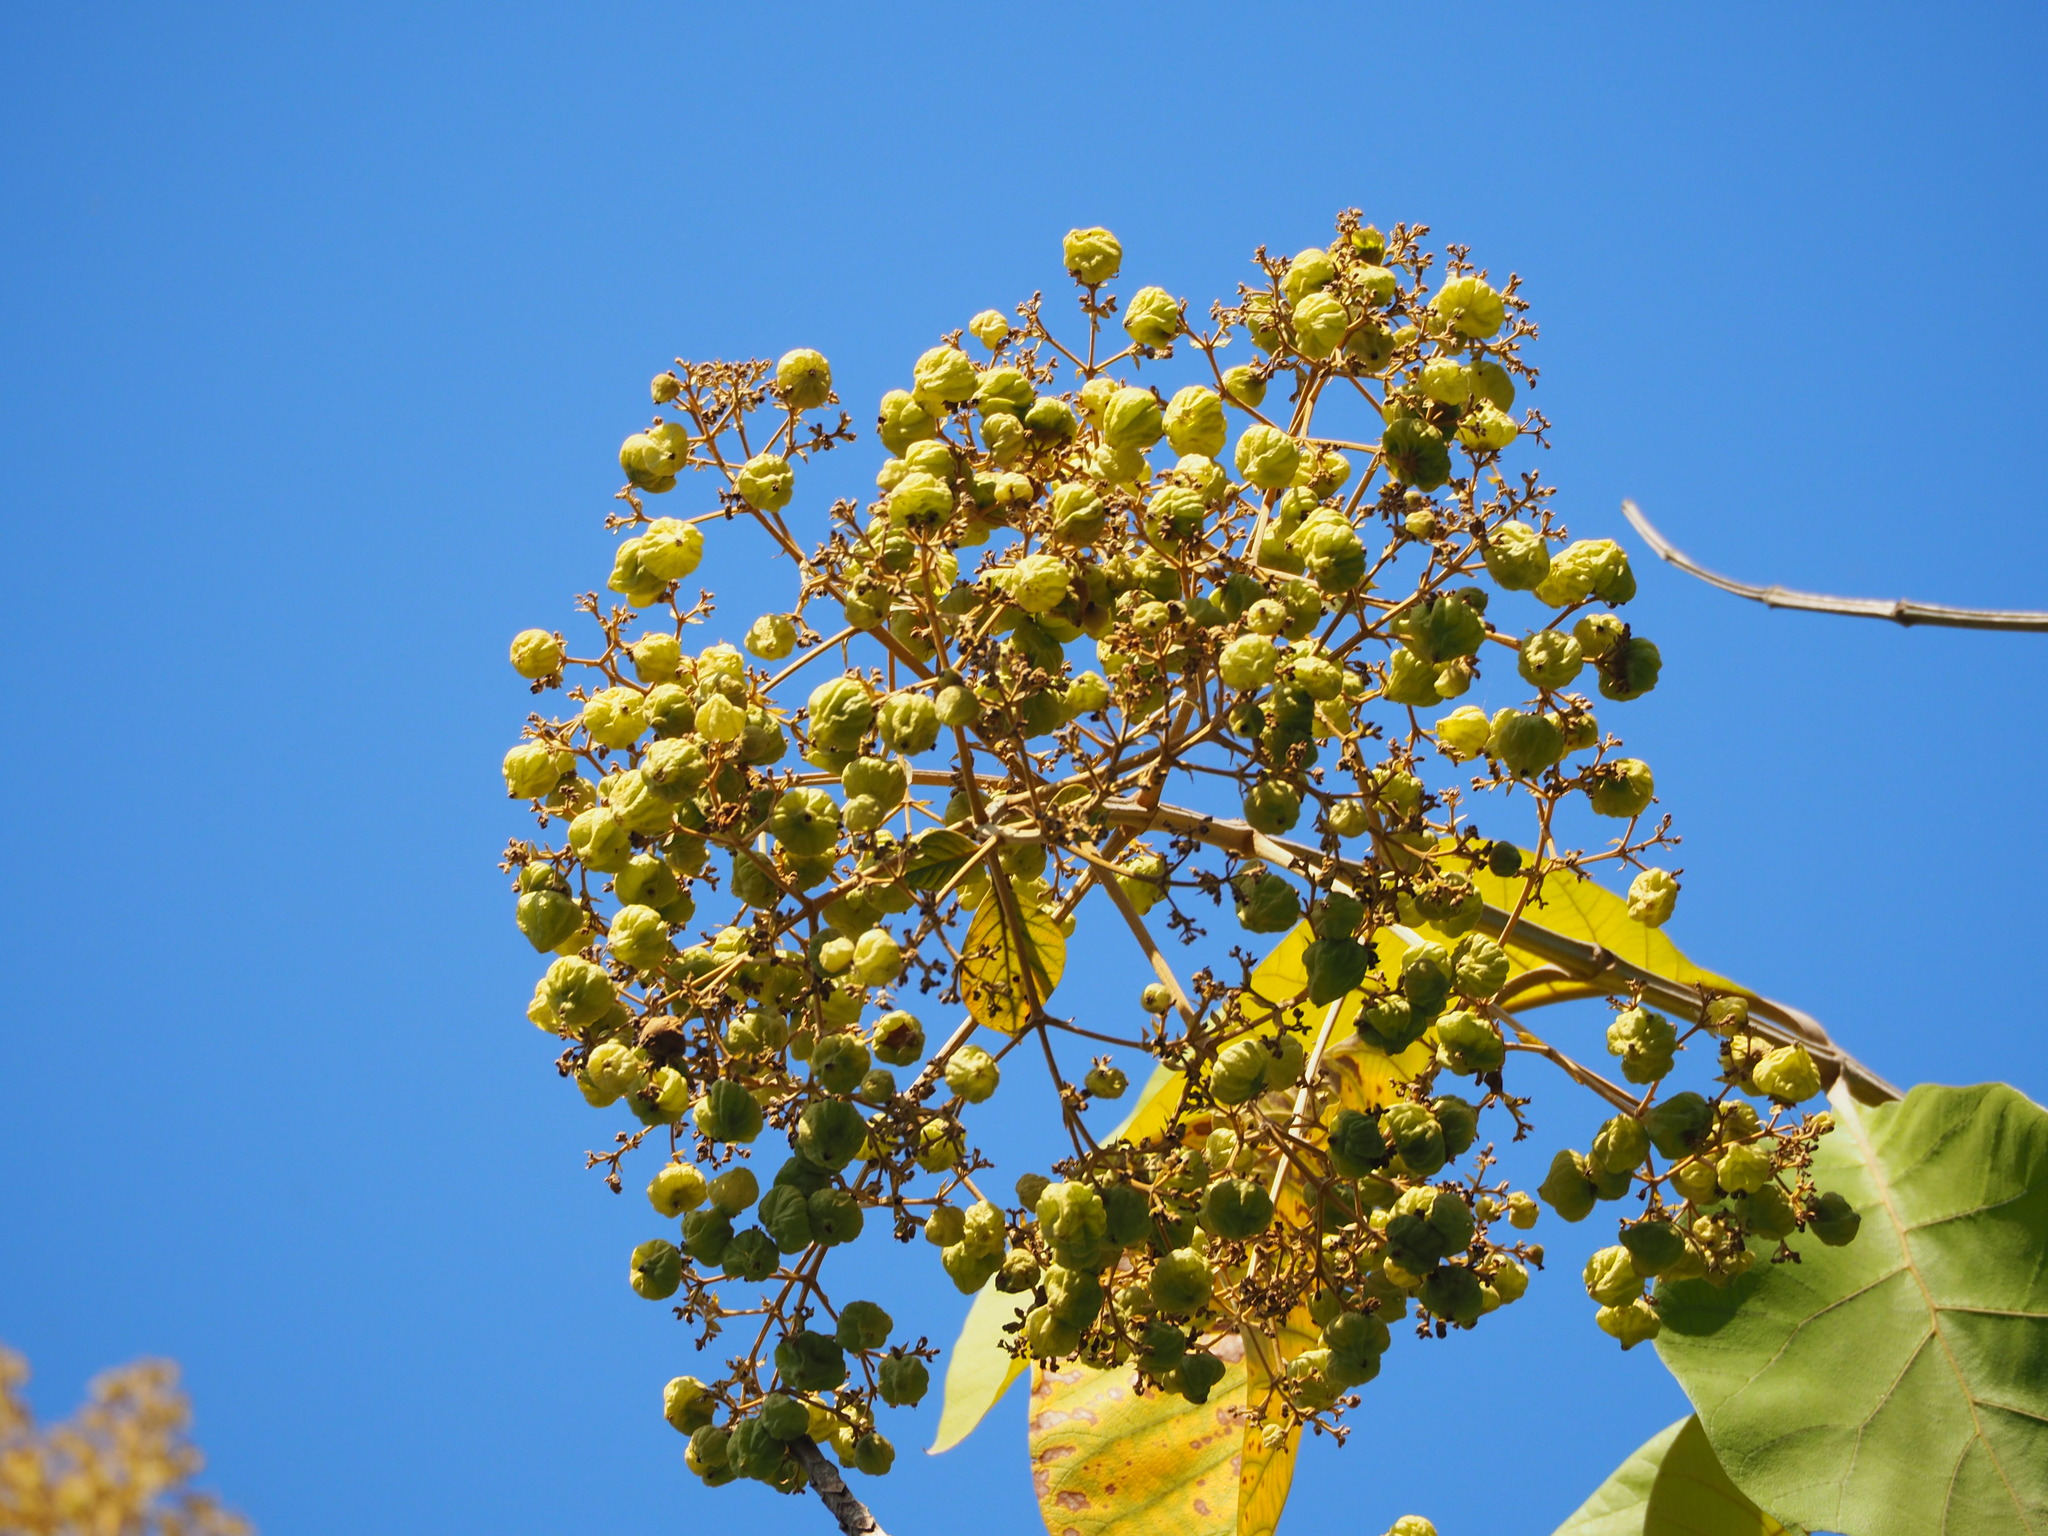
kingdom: Plantae
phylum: Tracheophyta
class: Magnoliopsida
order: Lamiales
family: Lamiaceae
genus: Tectona
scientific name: Tectona grandis
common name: Teak
